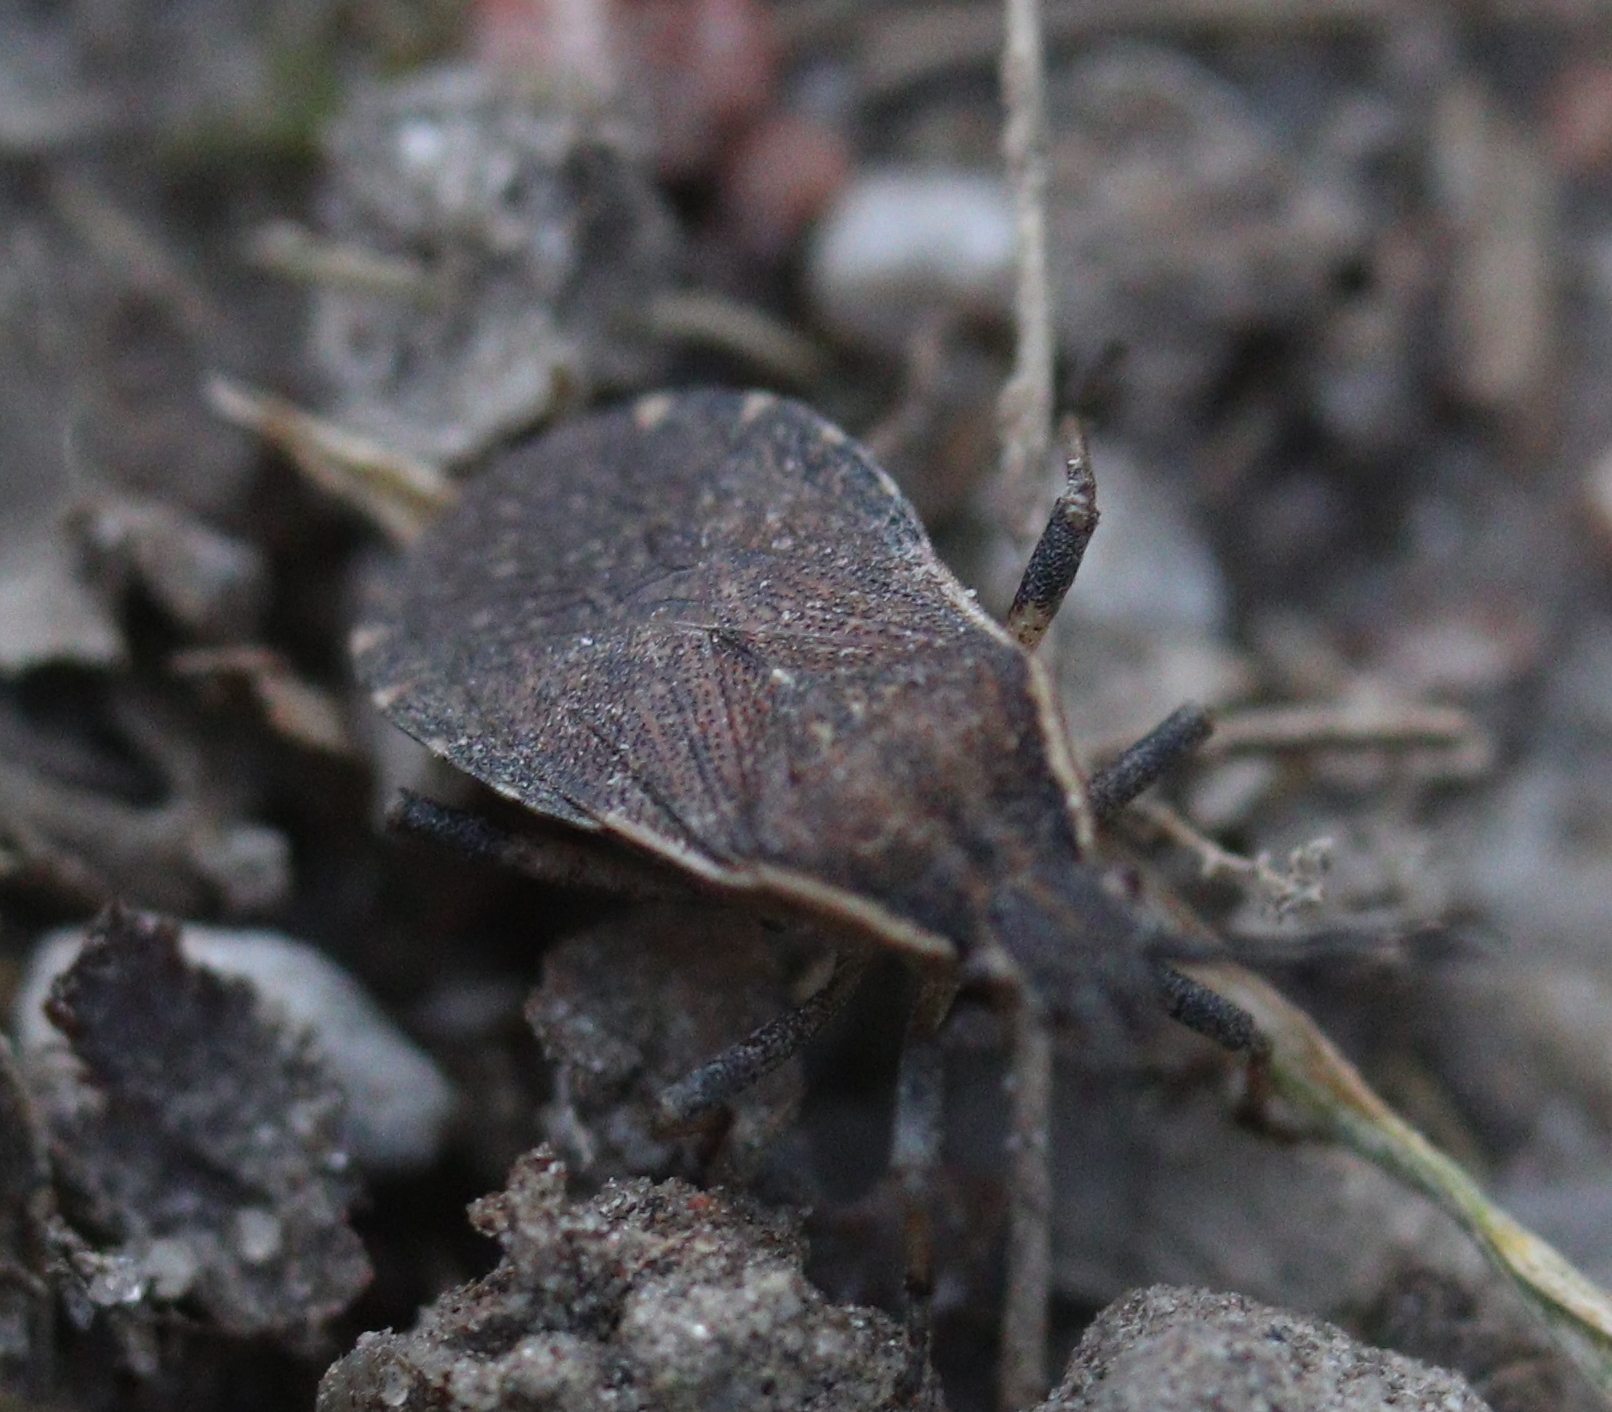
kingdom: Animalia
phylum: Arthropoda
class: Insecta
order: Hemiptera
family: Coreidae
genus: Nemocoris
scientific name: Nemocoris fallenii
